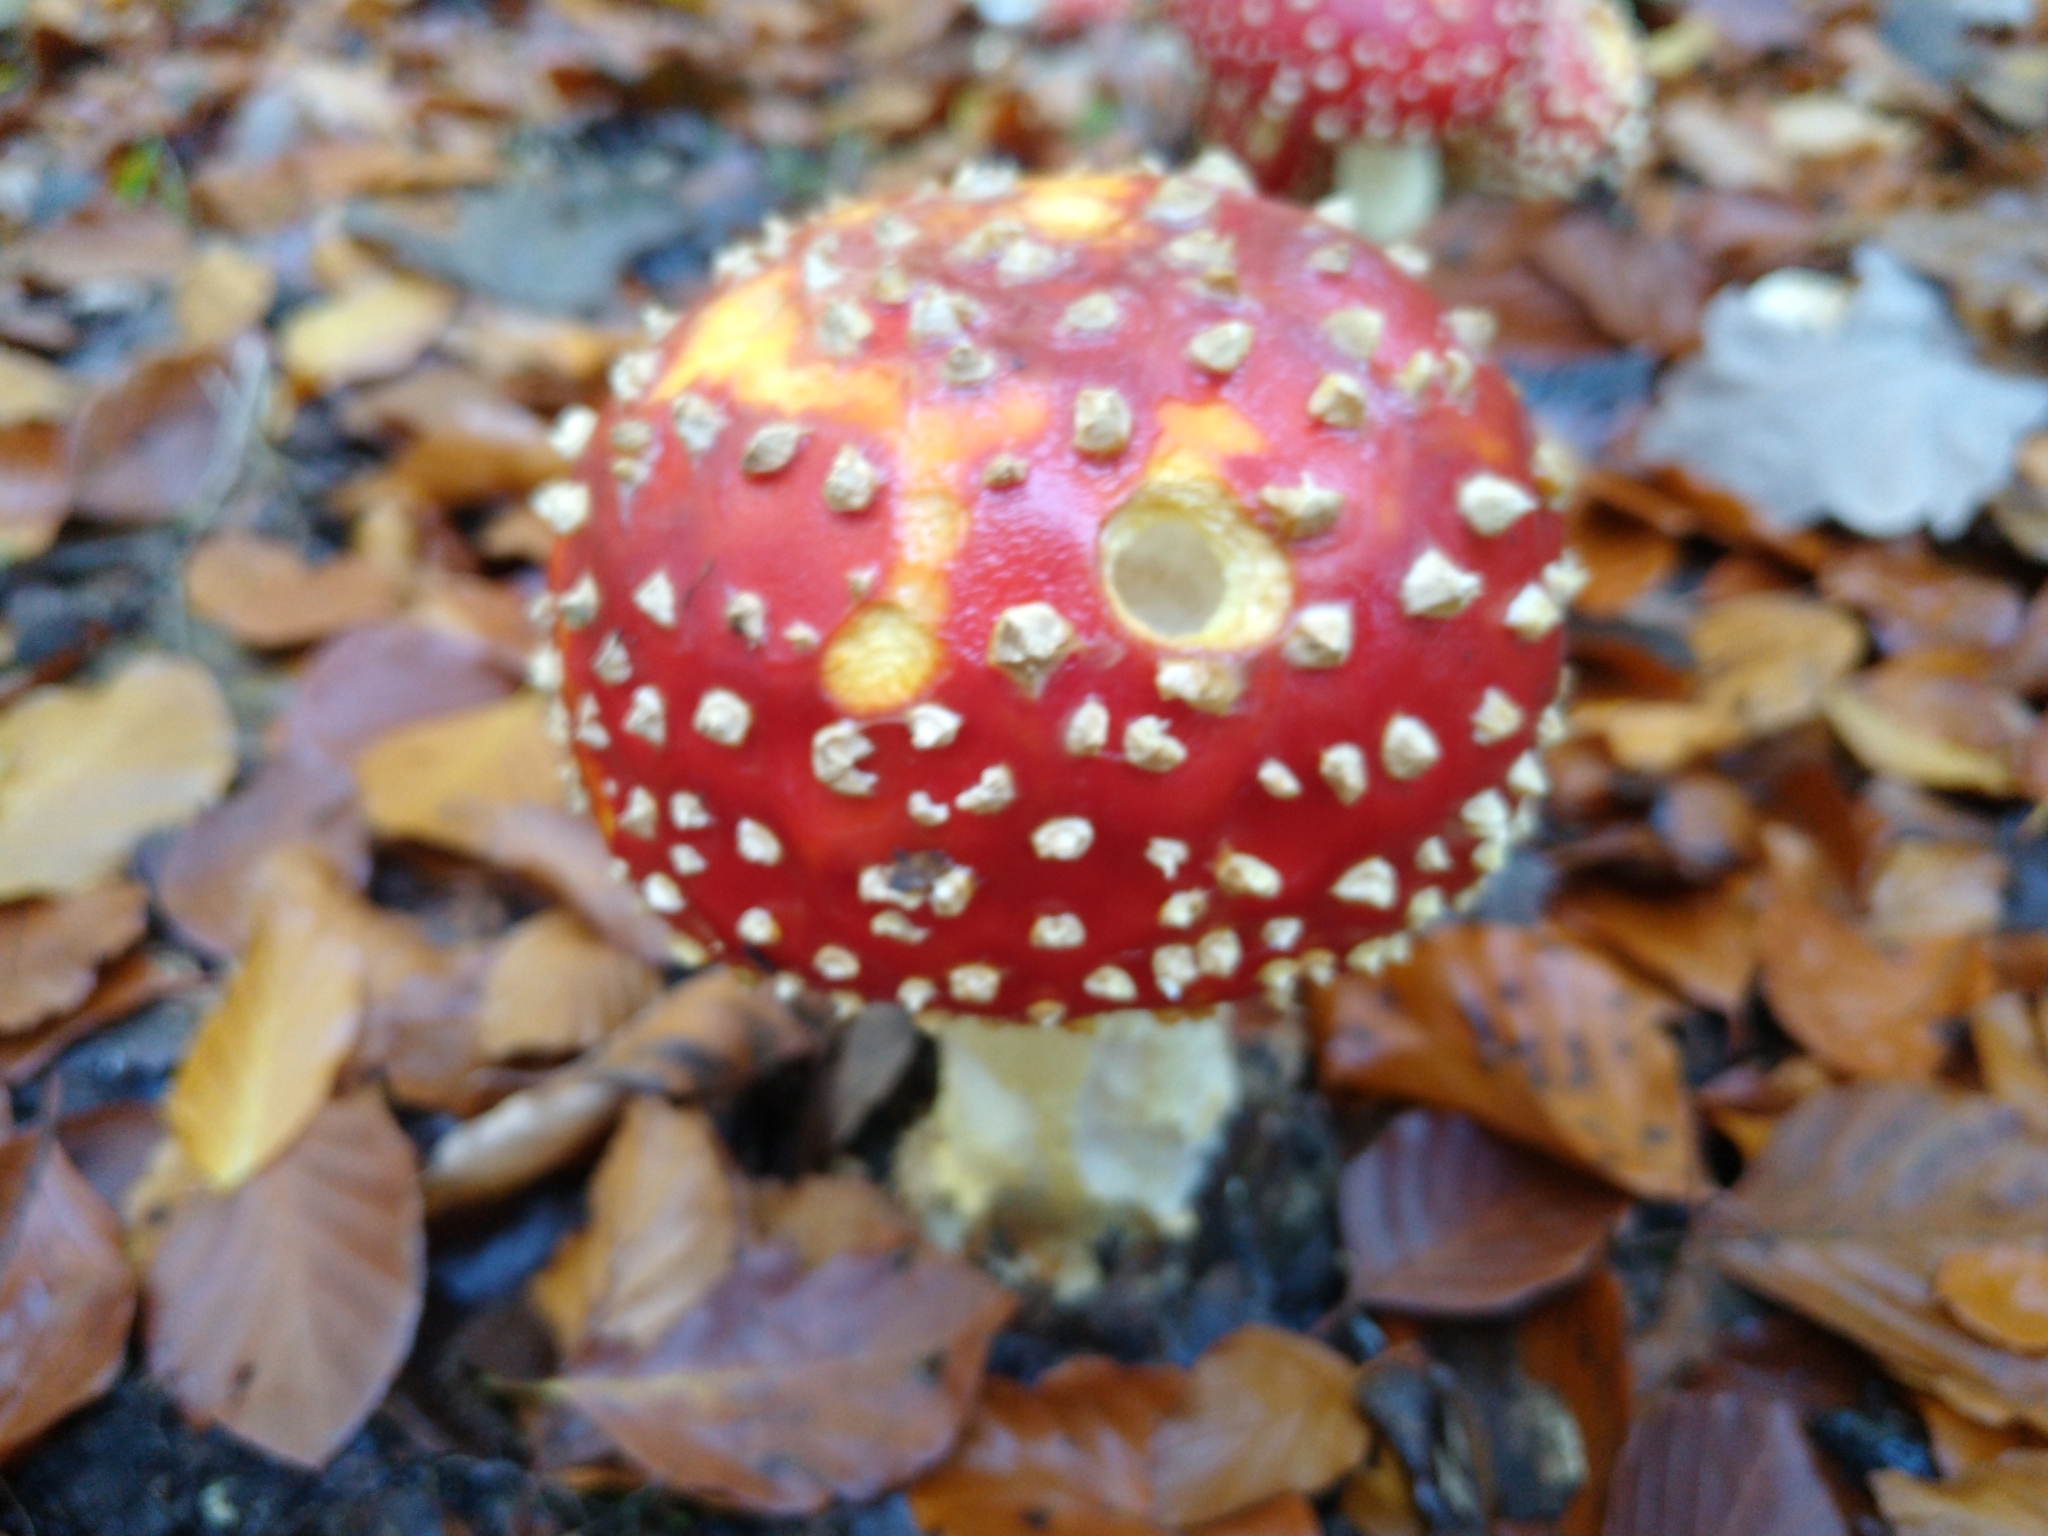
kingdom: Fungi
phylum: Basidiomycota
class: Agaricomycetes
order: Agaricales
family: Amanitaceae
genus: Amanita
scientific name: Amanita muscaria
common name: Fly agaric
